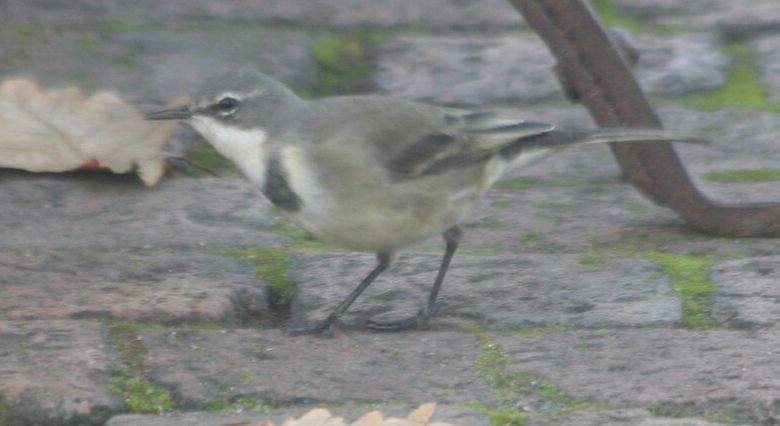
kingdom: Animalia
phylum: Chordata
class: Aves
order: Passeriformes
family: Motacillidae
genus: Motacilla
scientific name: Motacilla capensis
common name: Cape wagtail
